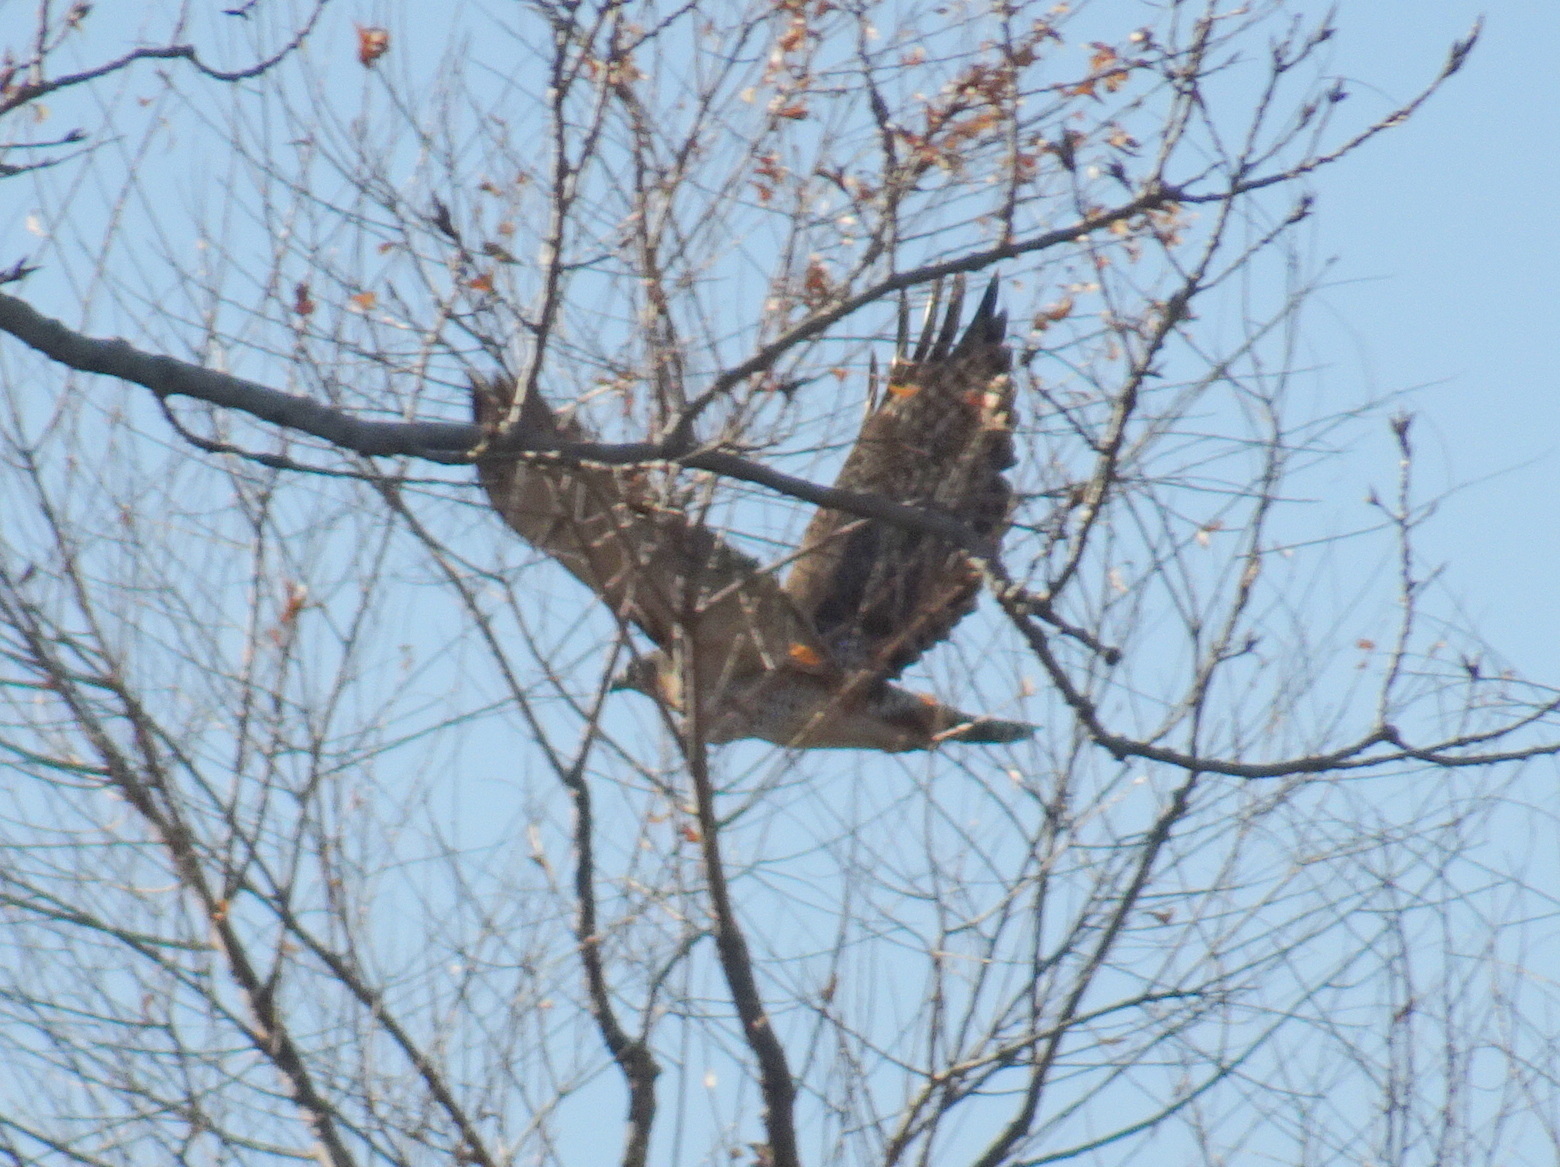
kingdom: Animalia
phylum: Chordata
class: Aves
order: Accipitriformes
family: Accipitridae
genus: Buteo
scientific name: Buteo jamaicensis
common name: Red-tailed hawk
